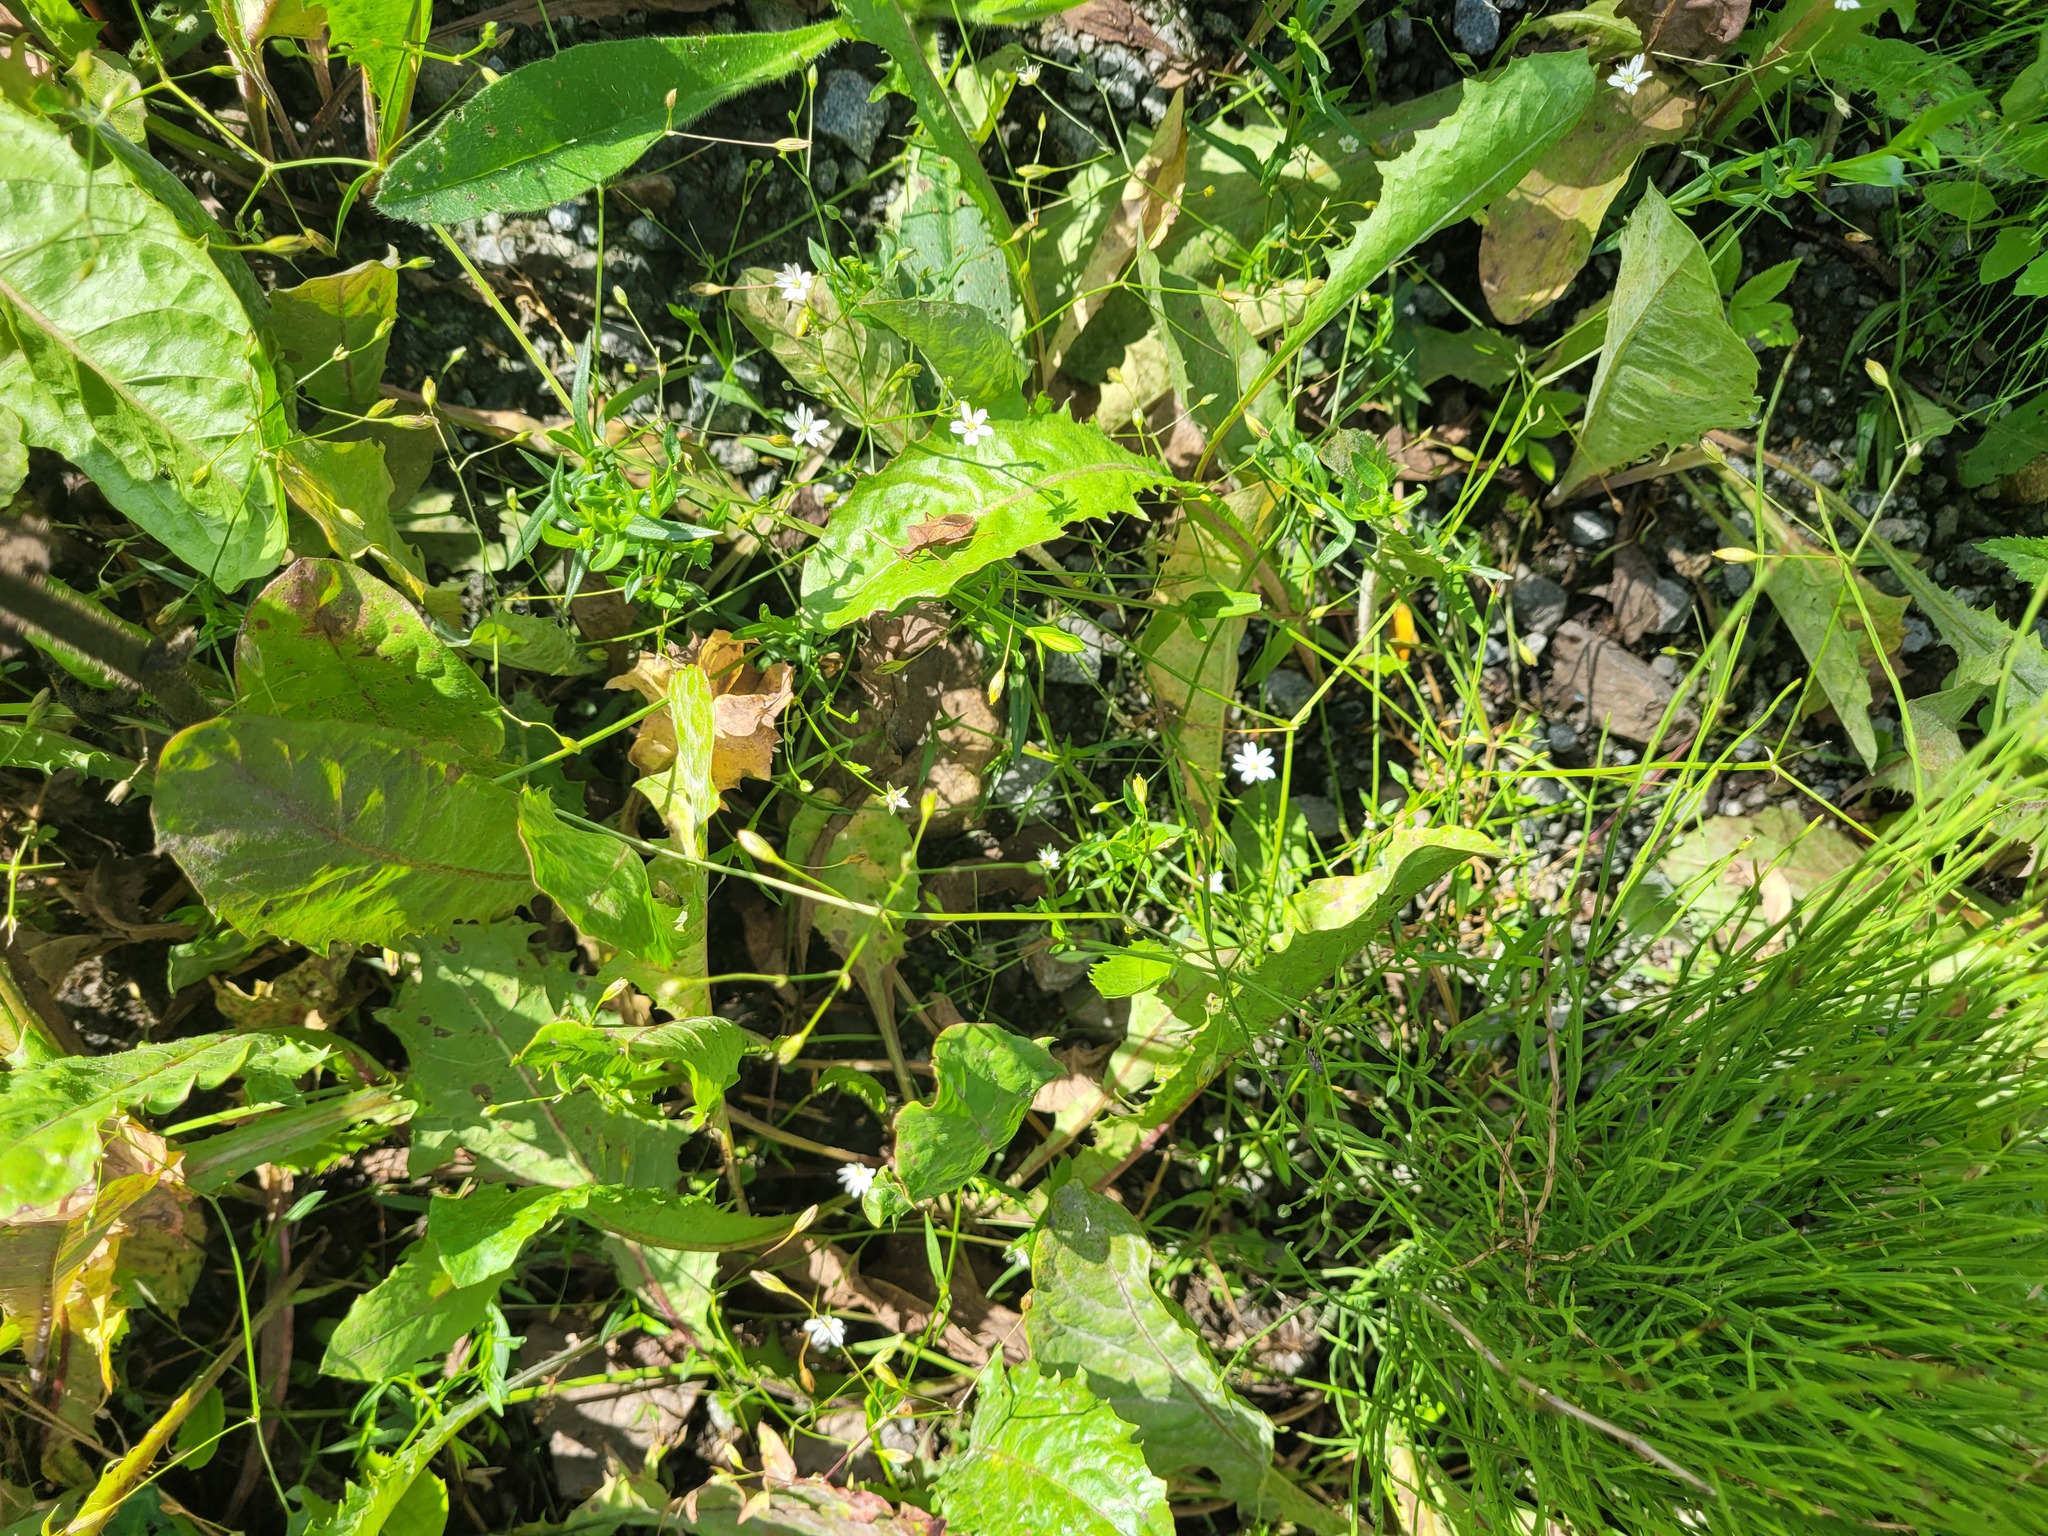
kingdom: Plantae
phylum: Tracheophyta
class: Magnoliopsida
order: Caryophyllales
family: Caryophyllaceae
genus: Stellaria
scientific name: Stellaria graminea
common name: Grass-like starwort
